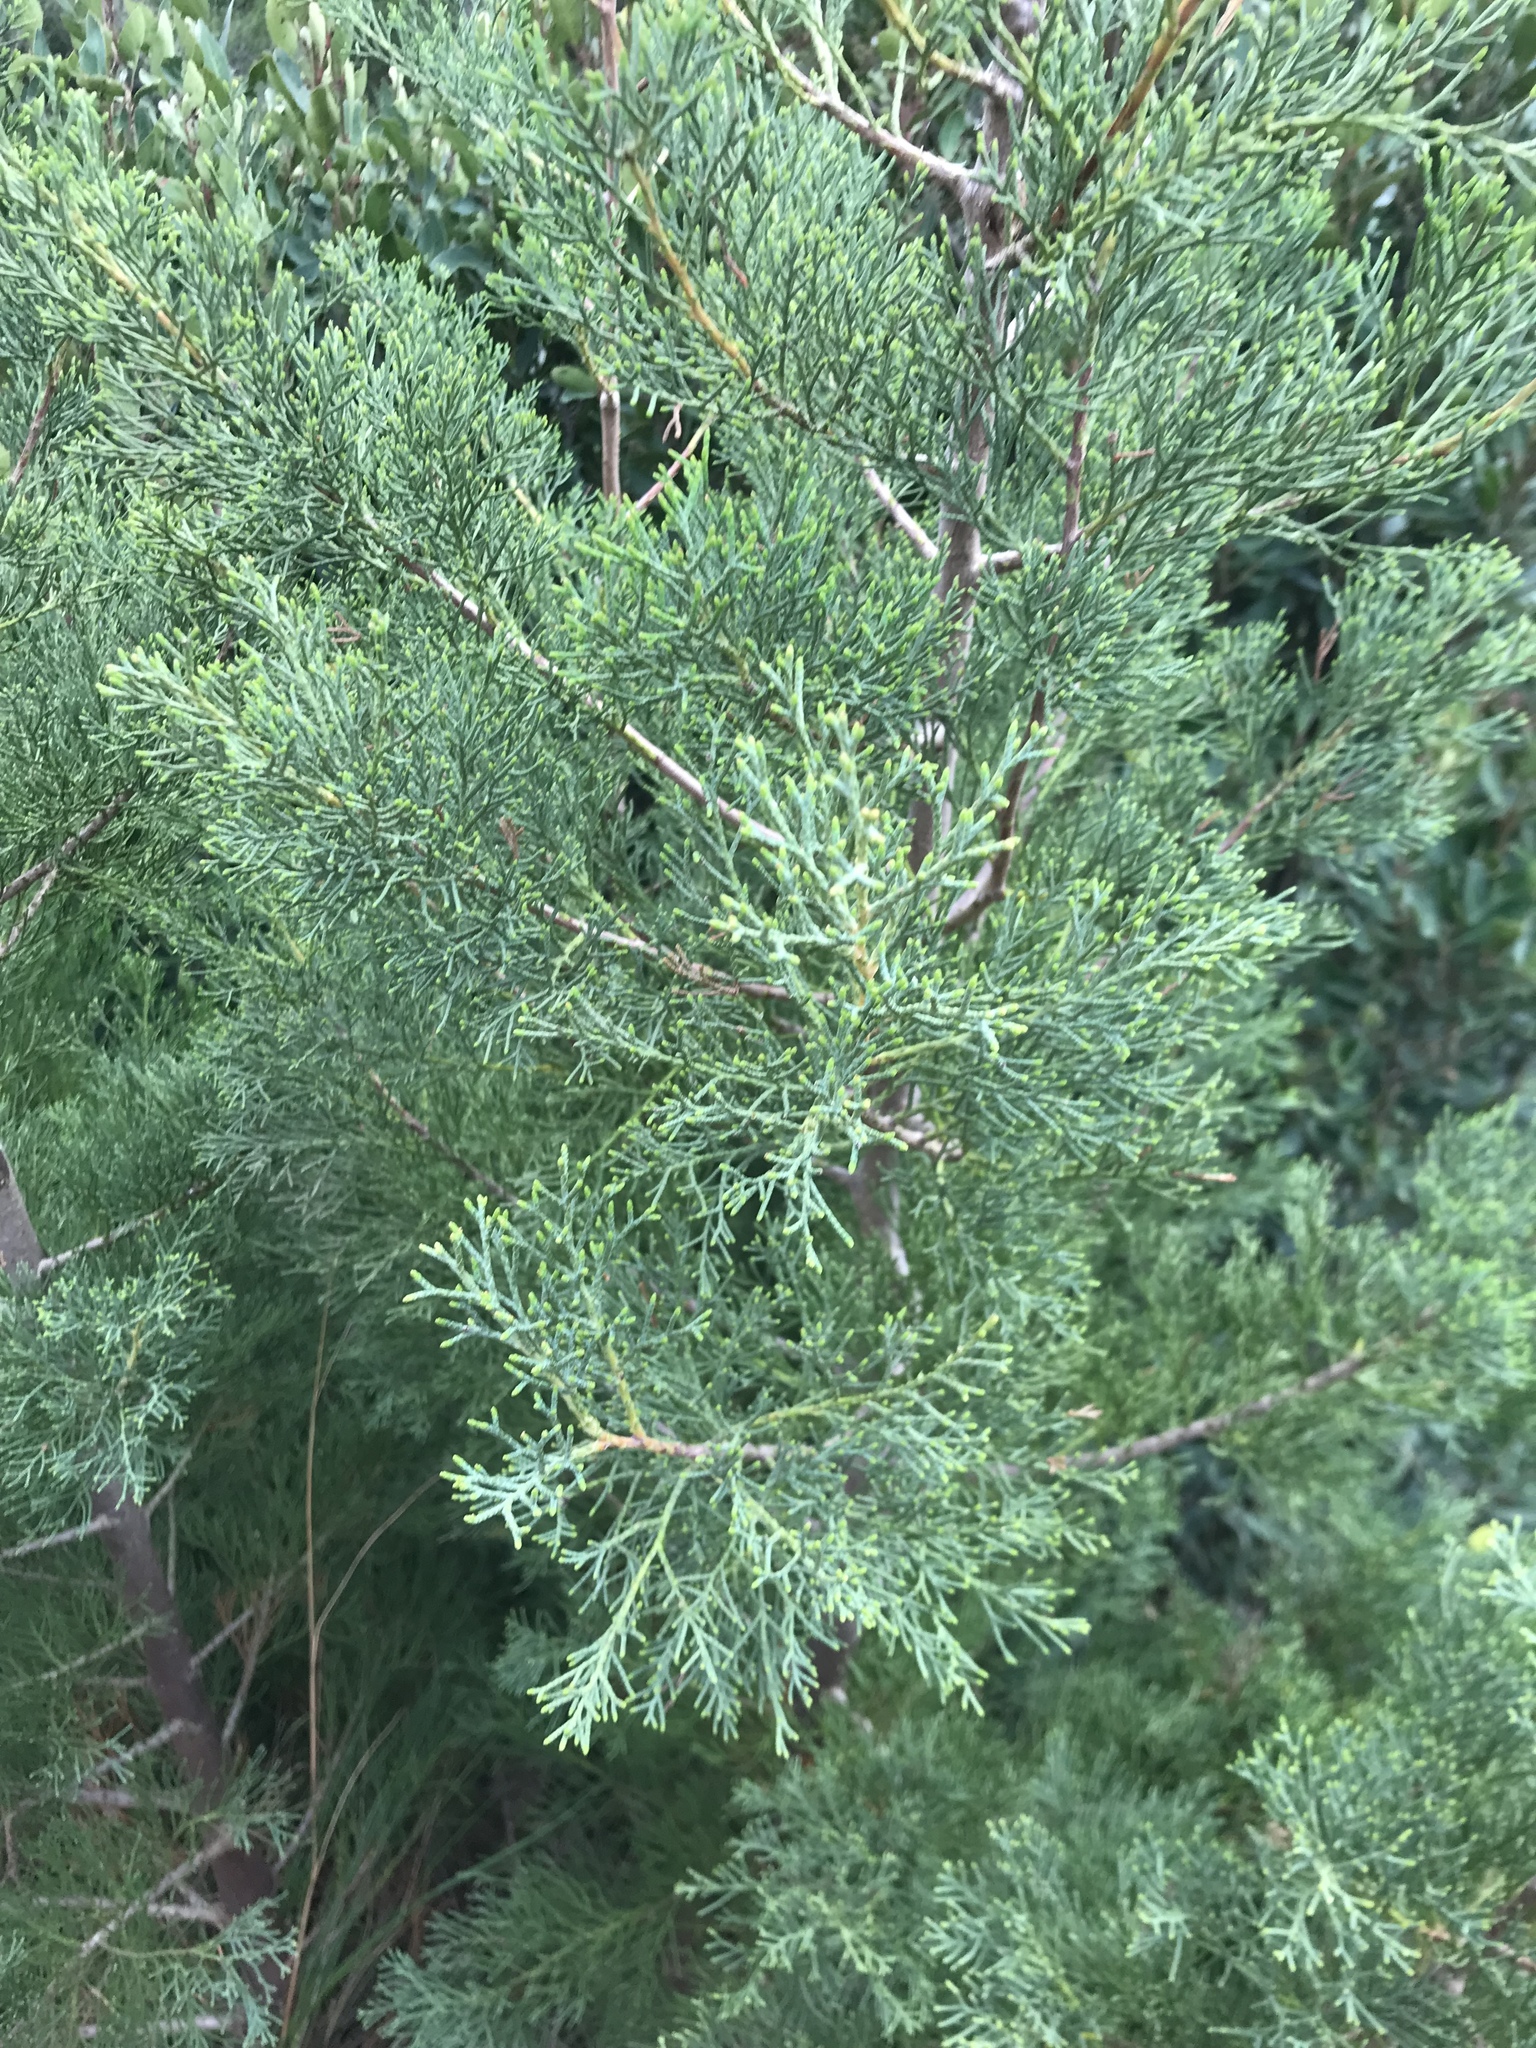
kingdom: Plantae
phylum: Tracheophyta
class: Pinopsida
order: Pinales
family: Cupressaceae
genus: Widdringtonia
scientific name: Widdringtonia nodiflora
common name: Cape cypress
